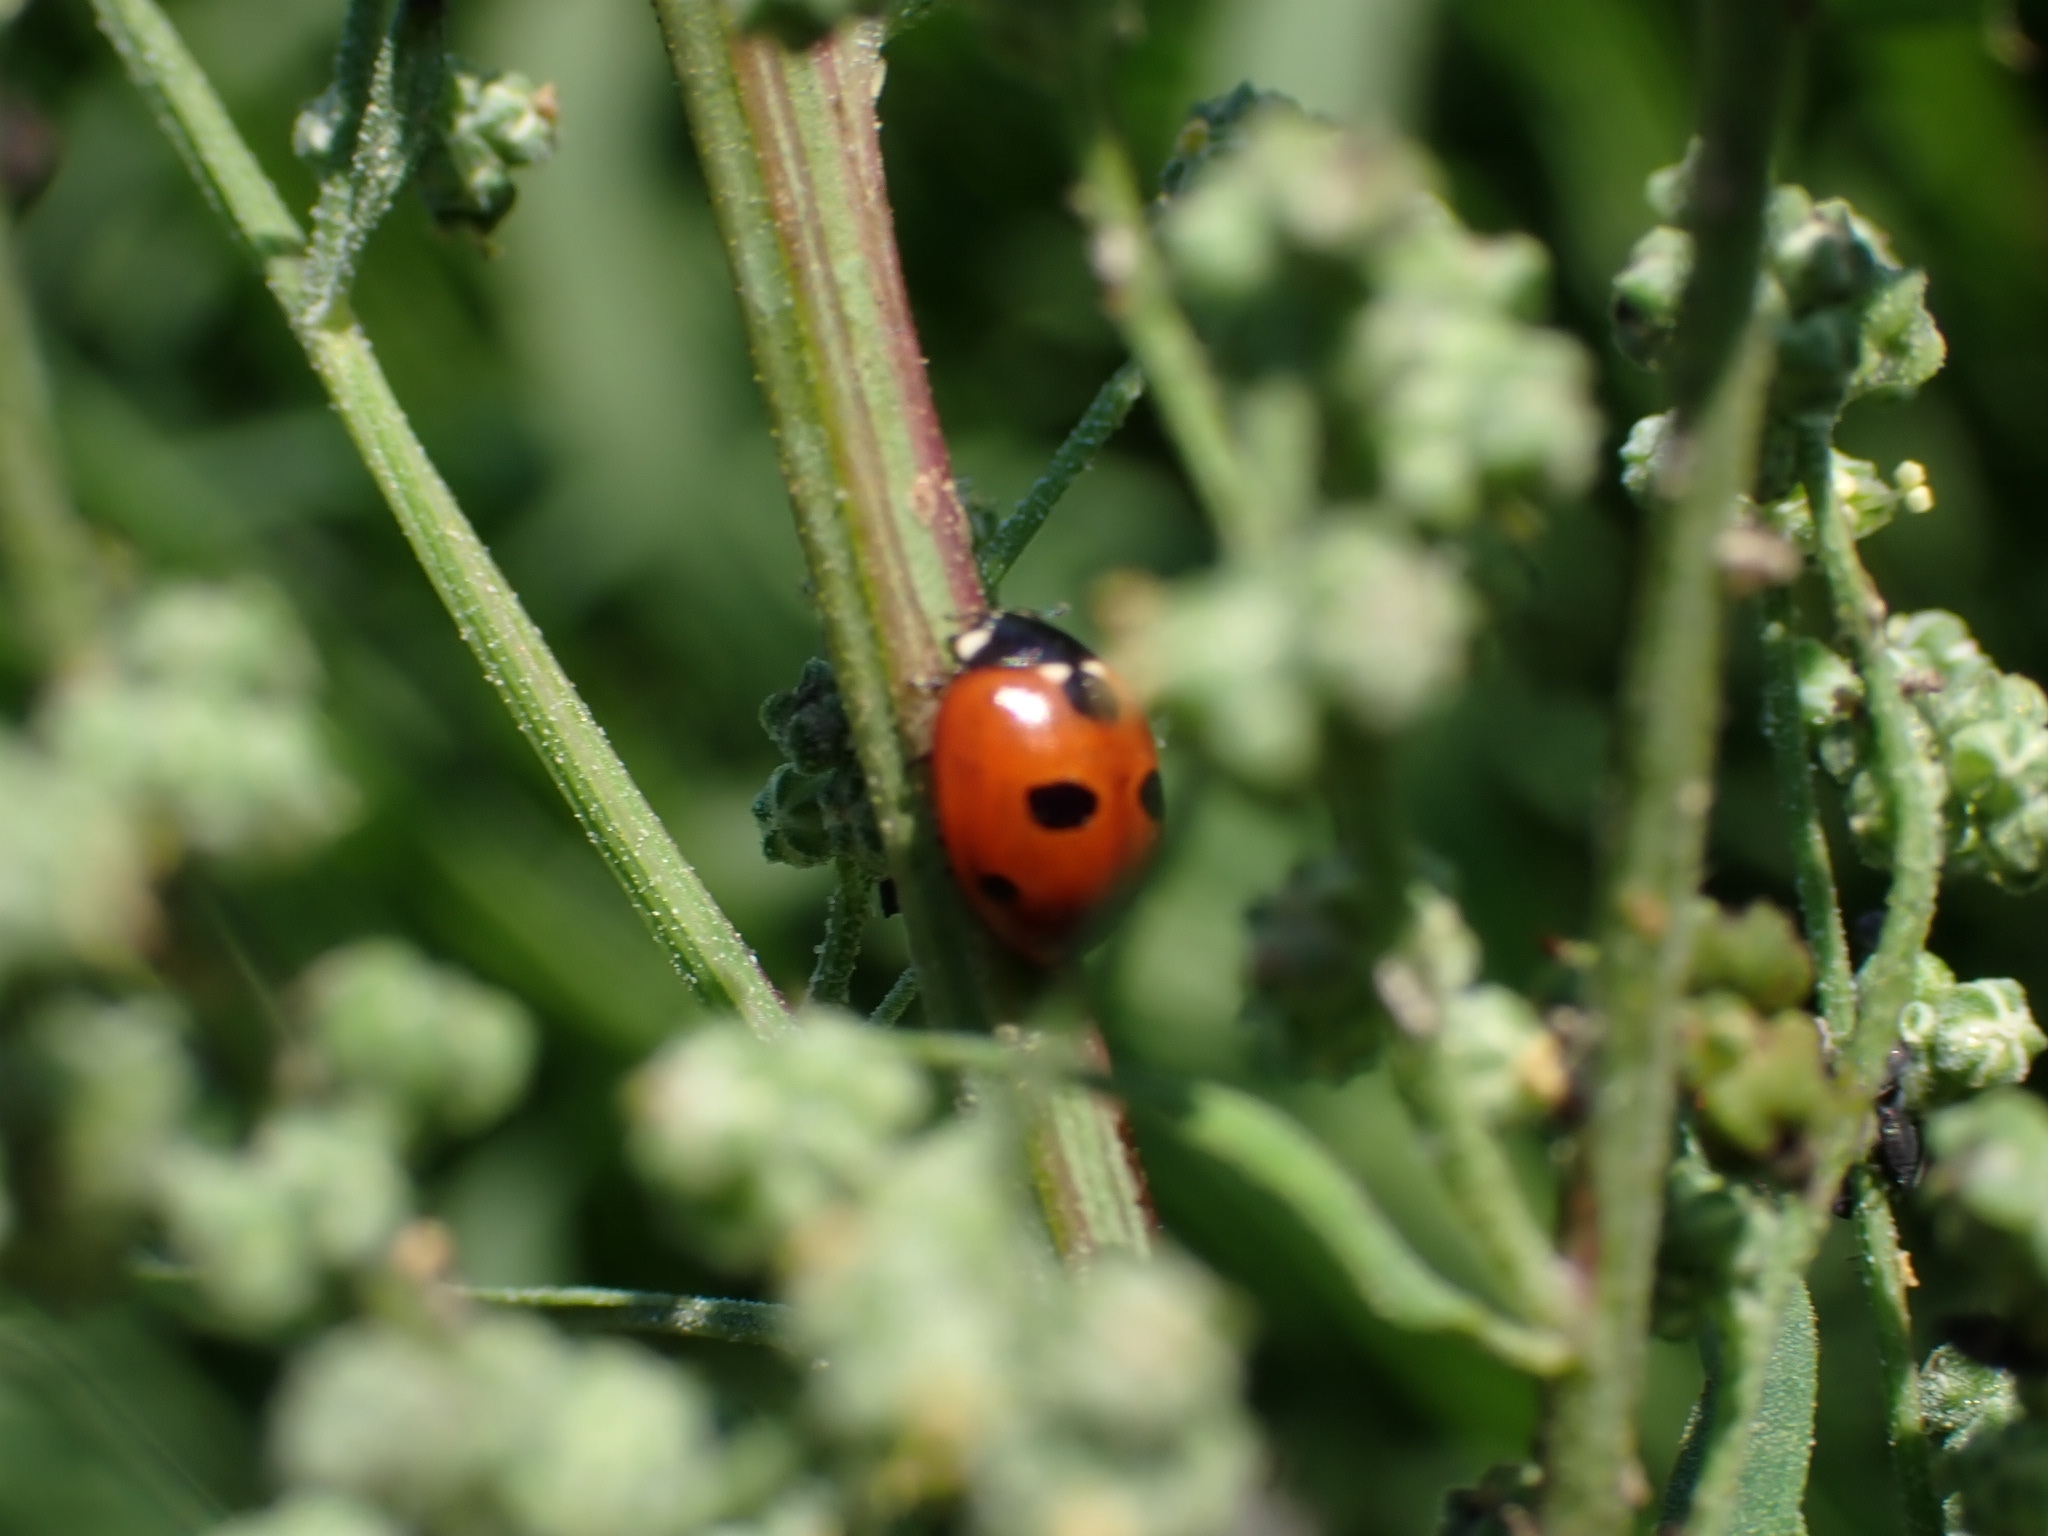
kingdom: Animalia
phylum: Arthropoda
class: Insecta
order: Coleoptera
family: Coccinellidae
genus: Coccinella
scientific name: Coccinella quinquepunctata
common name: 5-spot ladybird
